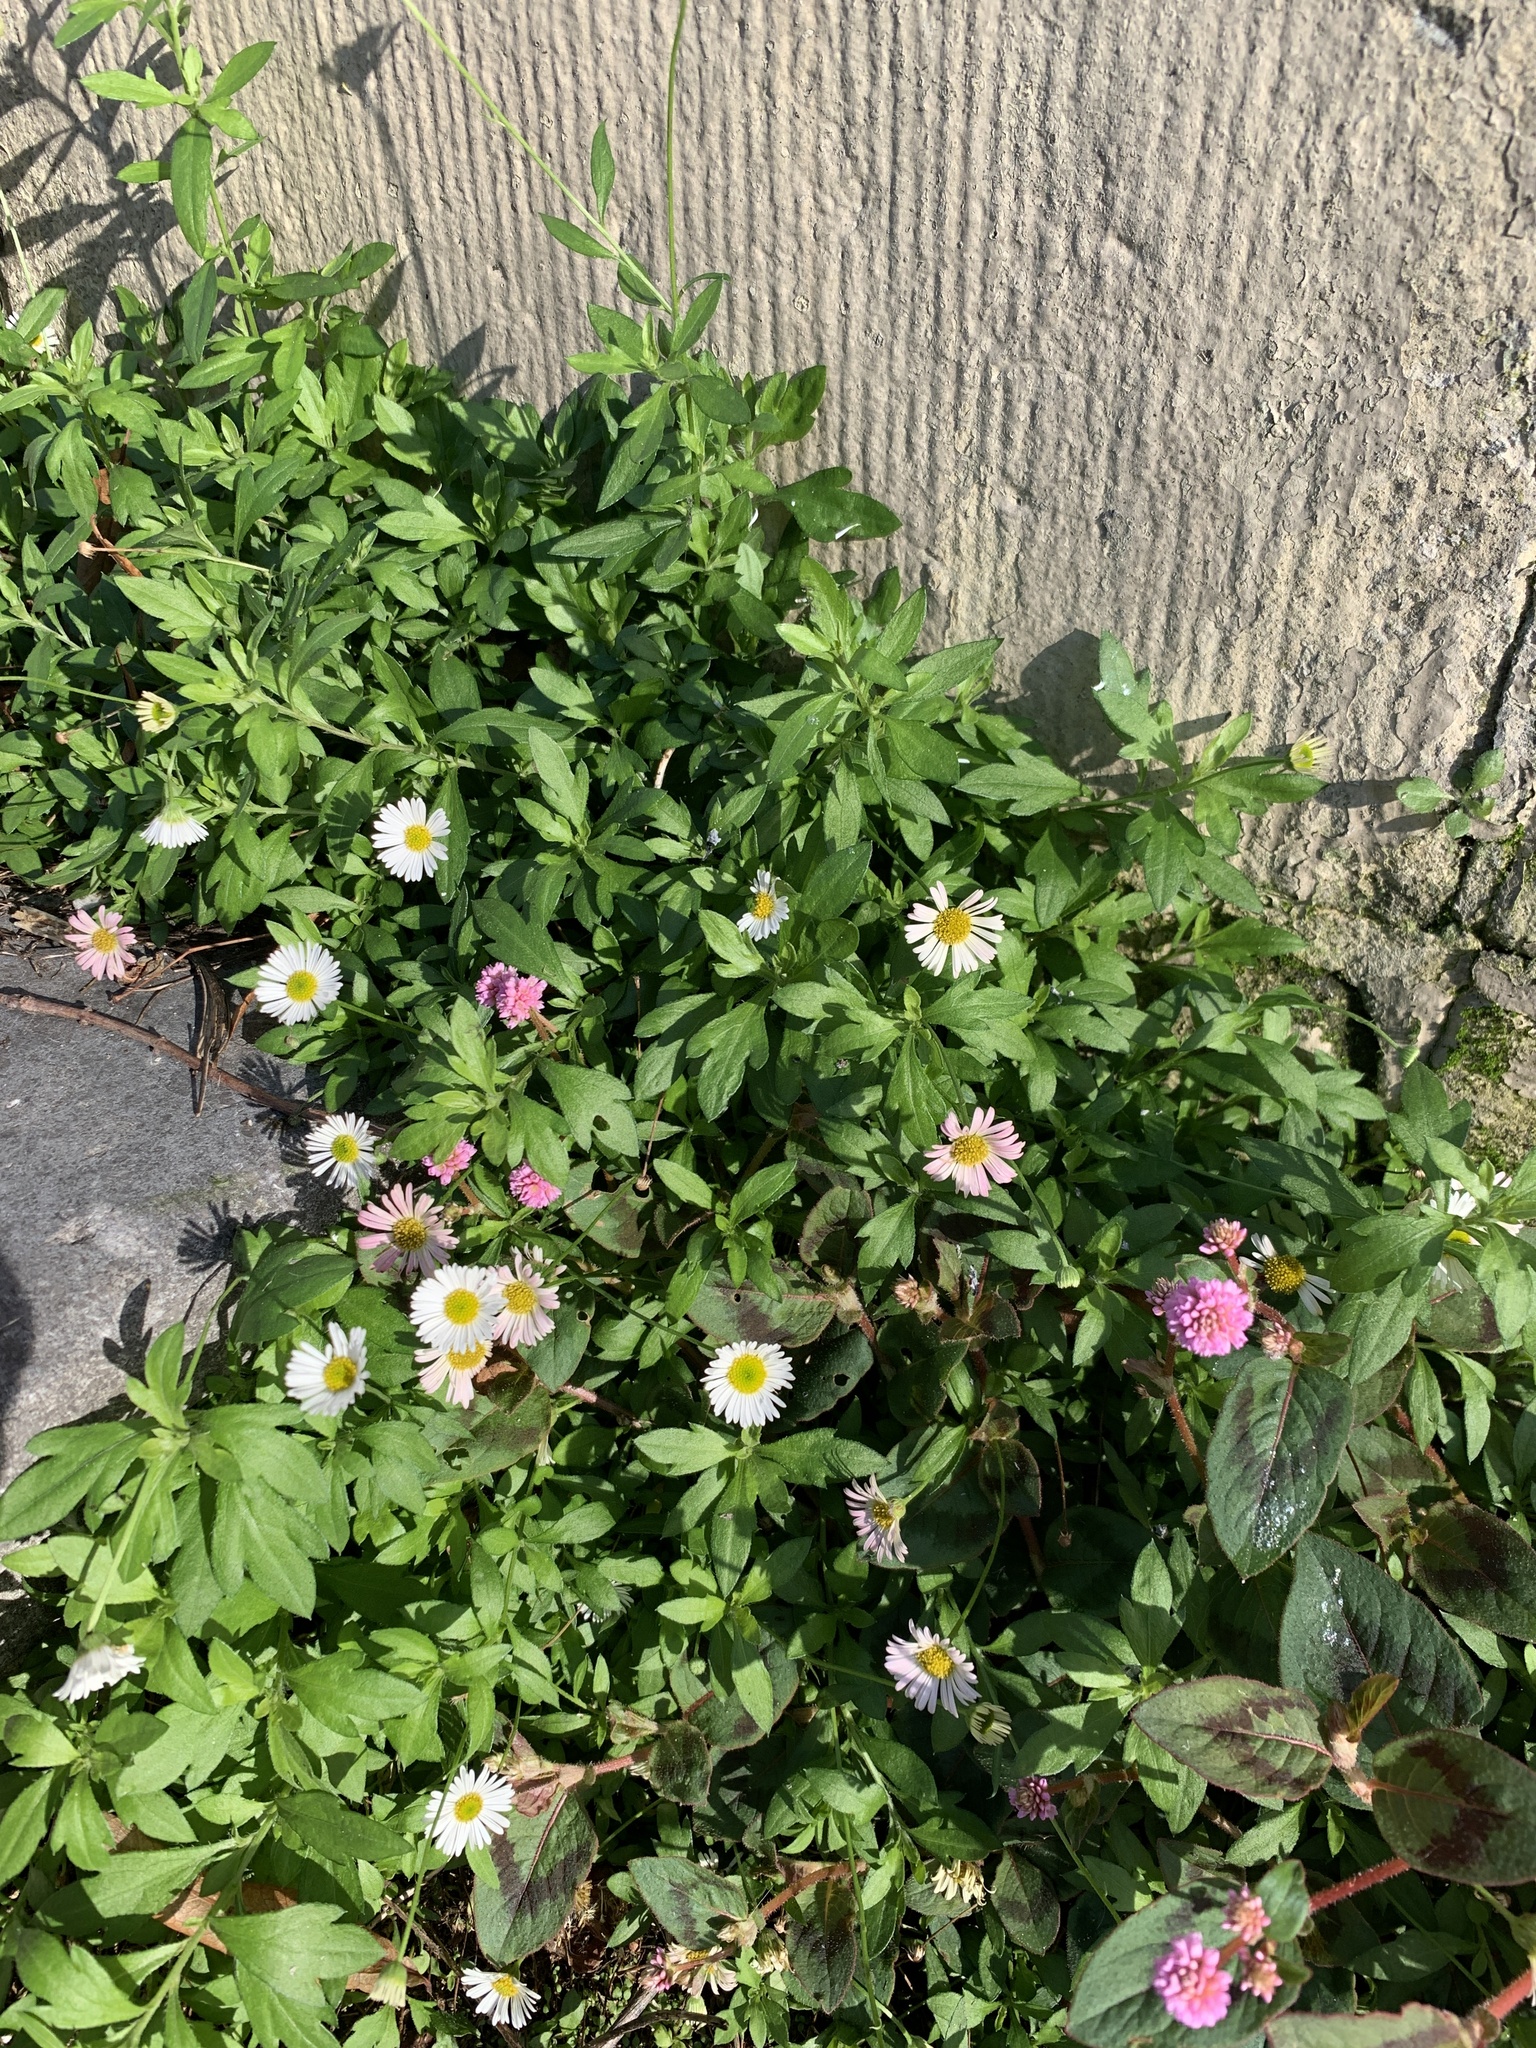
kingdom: Plantae
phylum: Tracheophyta
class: Magnoliopsida
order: Asterales
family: Asteraceae
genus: Erigeron
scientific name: Erigeron karvinskianus
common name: Mexican fleabane
